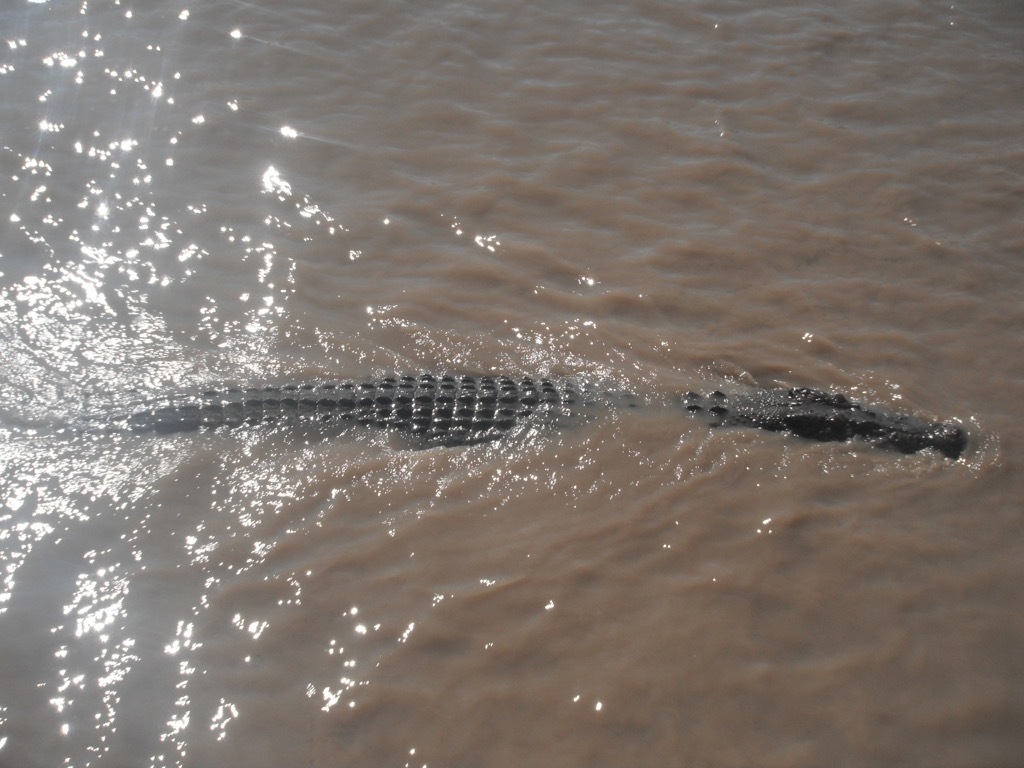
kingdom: Animalia
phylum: Chordata
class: Crocodylia
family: Crocodylidae
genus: Crocodylus
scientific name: Crocodylus porosus
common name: Saltwater crocodile
